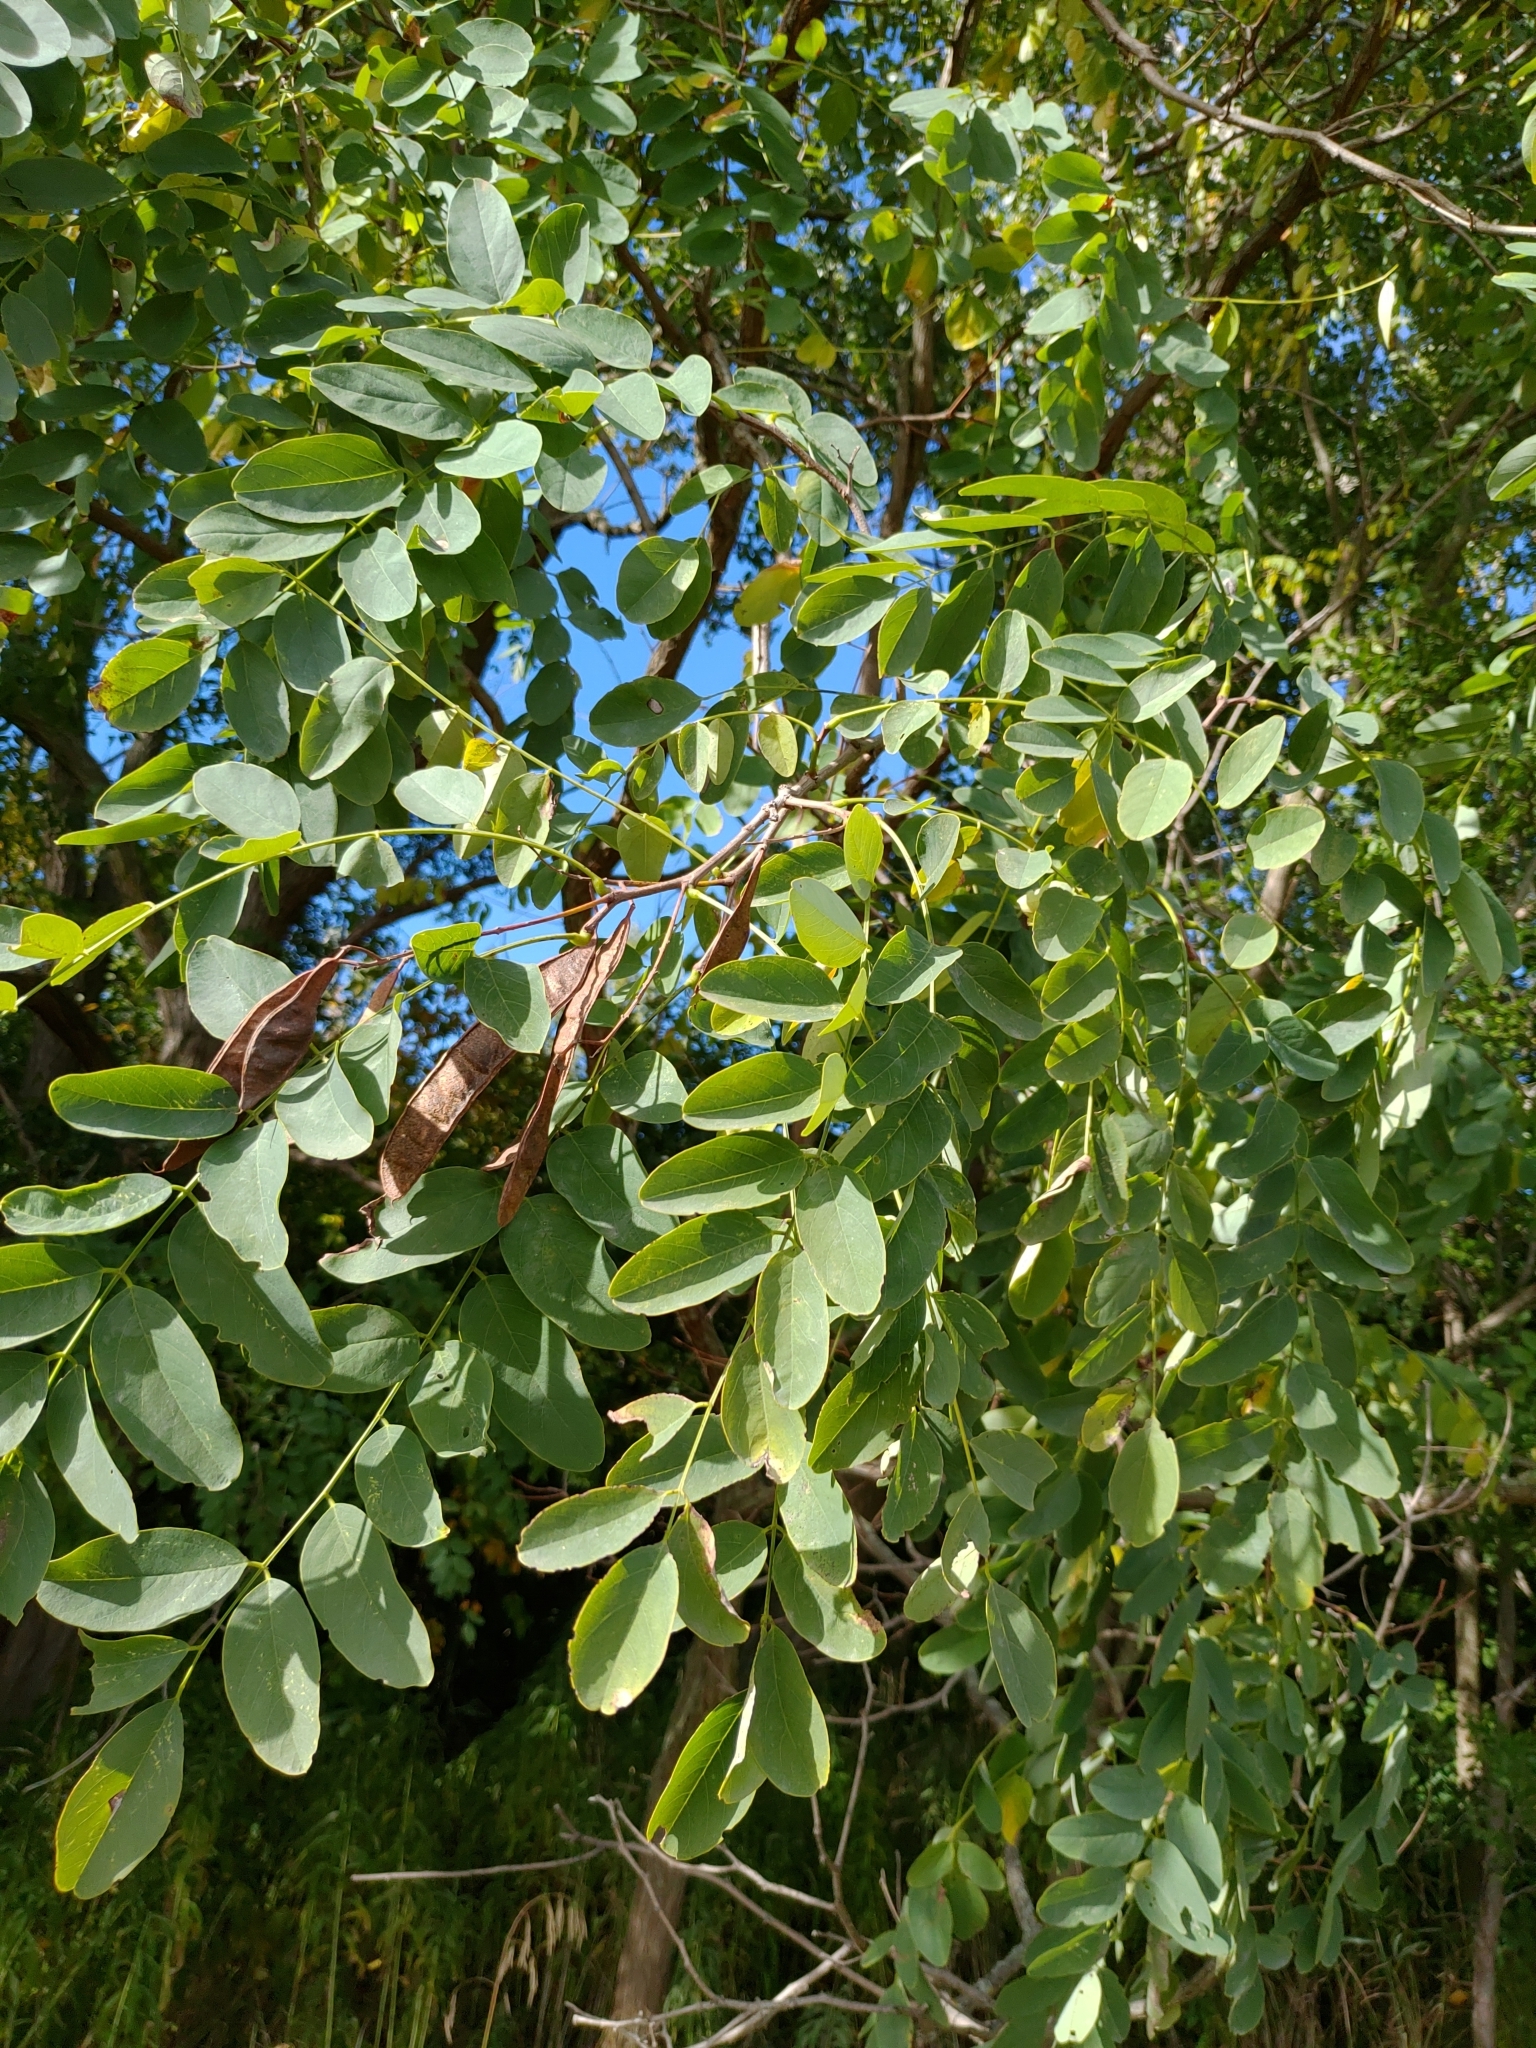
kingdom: Plantae
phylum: Tracheophyta
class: Magnoliopsida
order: Fabales
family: Fabaceae
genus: Robinia
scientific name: Robinia pseudoacacia
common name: Black locust
